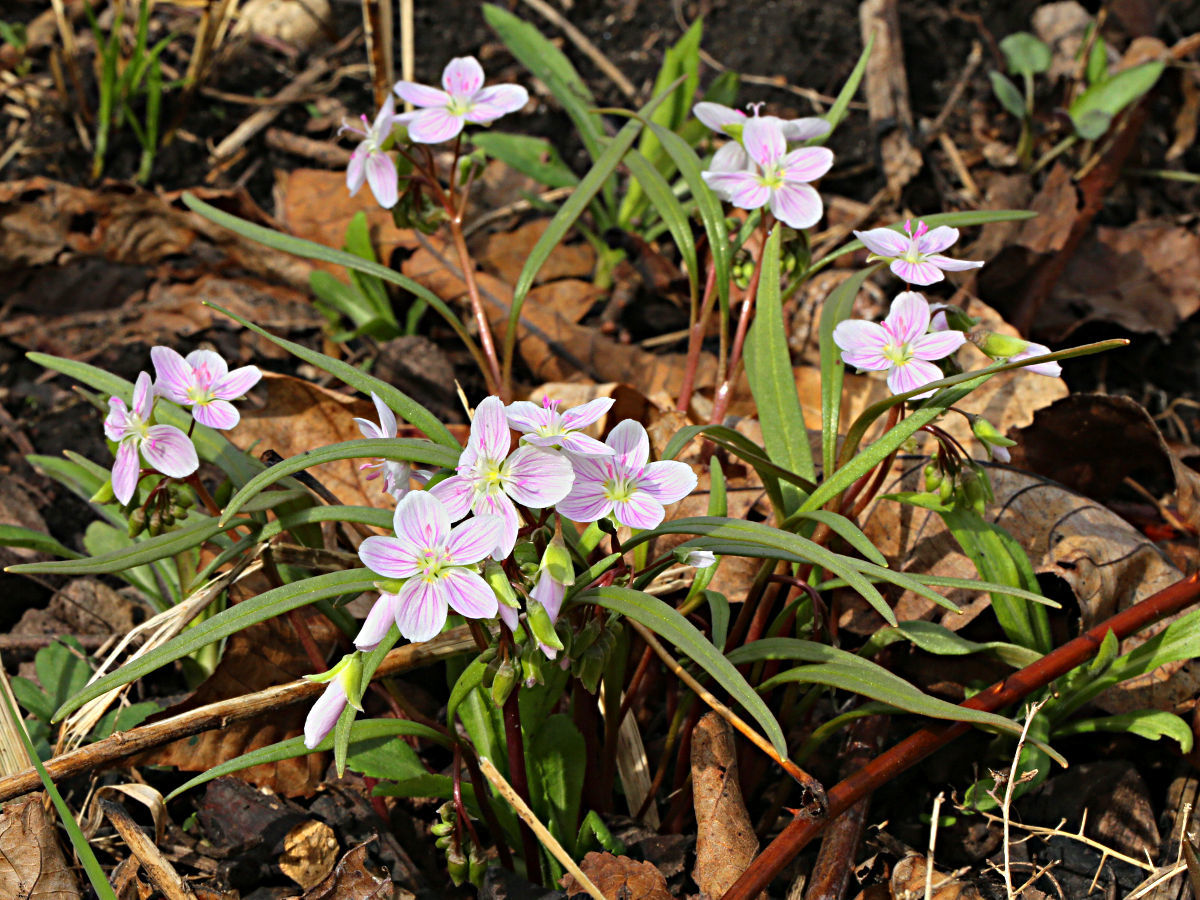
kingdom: Plantae
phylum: Tracheophyta
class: Magnoliopsida
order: Caryophyllales
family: Montiaceae
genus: Claytonia
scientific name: Claytonia virginica
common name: Virginia springbeauty
